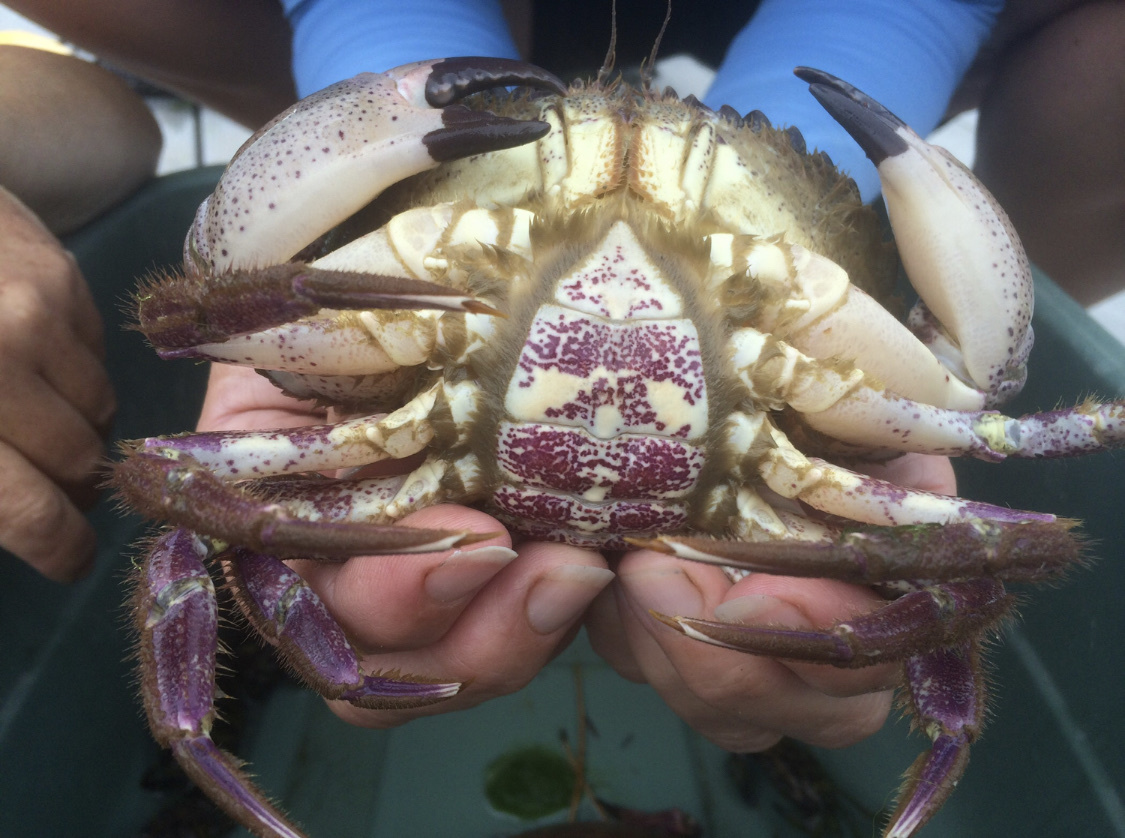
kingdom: Animalia
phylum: Arthropoda
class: Malacostraca
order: Decapoda
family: Cancridae
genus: Romaleon
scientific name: Romaleon antennarium
